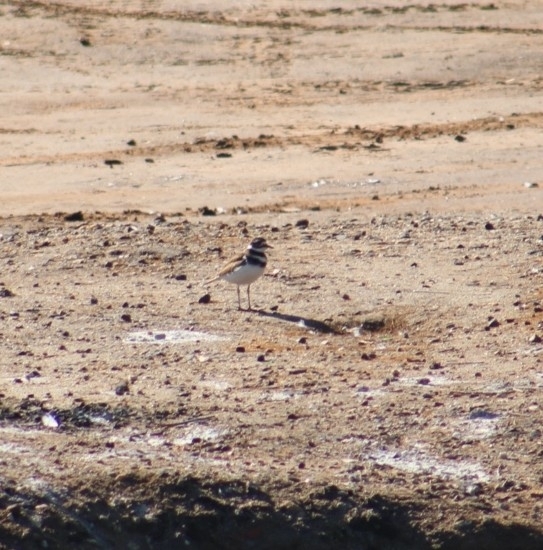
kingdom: Animalia
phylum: Chordata
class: Aves
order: Charadriiformes
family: Charadriidae
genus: Charadrius
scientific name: Charadrius vociferus
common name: Killdeer
